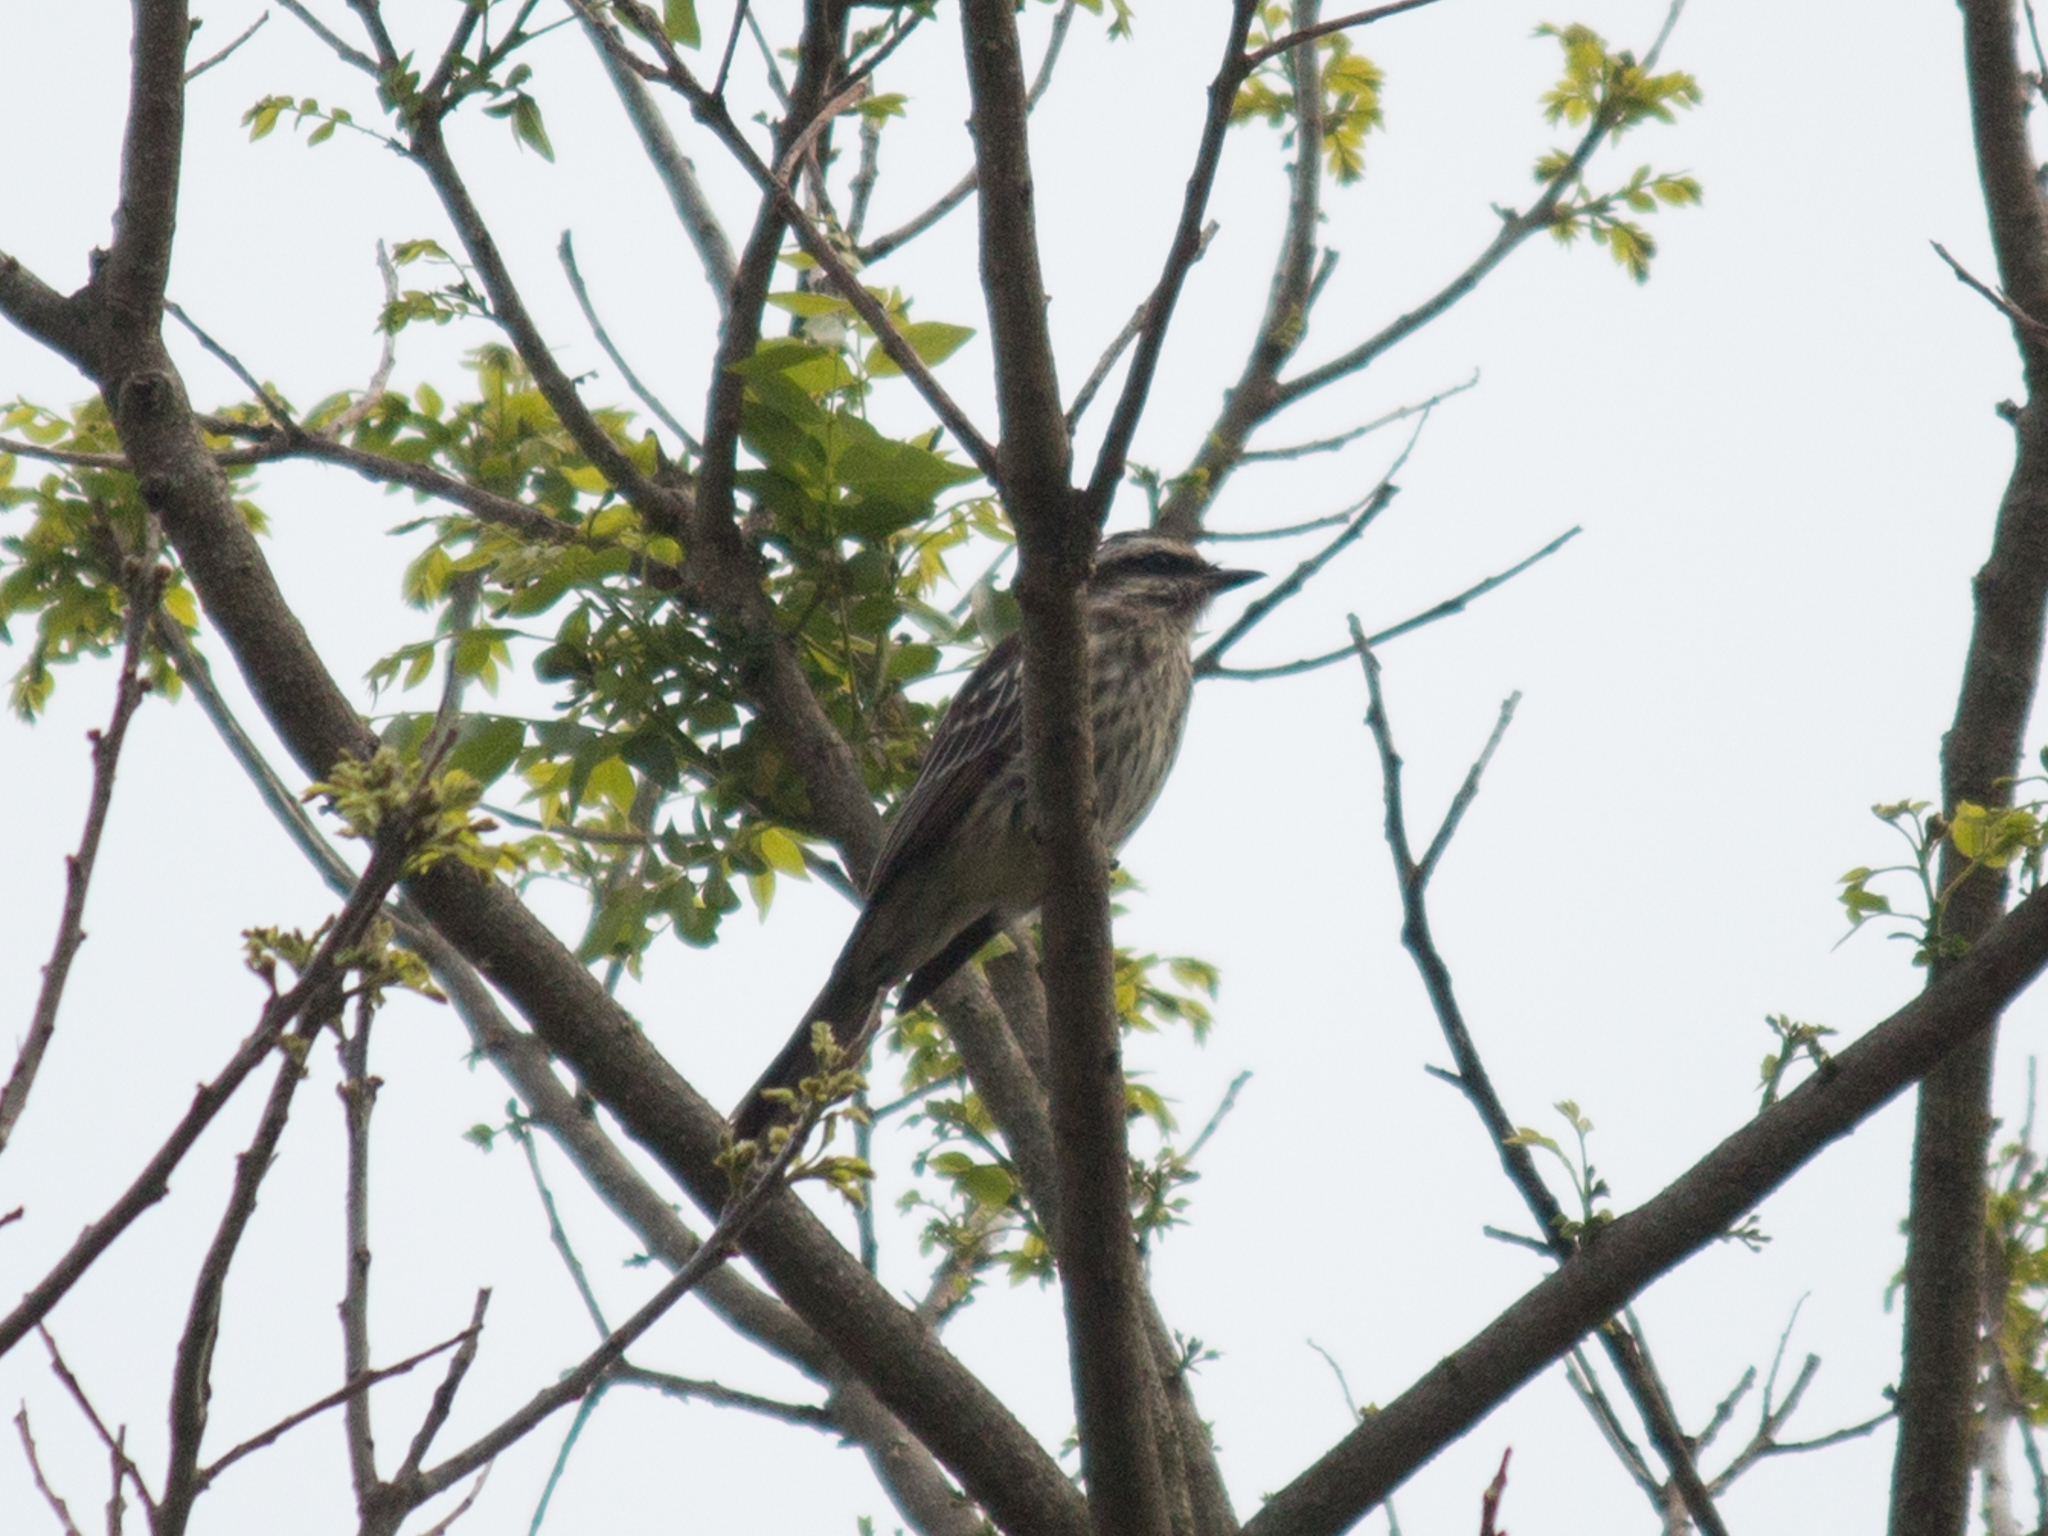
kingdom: Animalia
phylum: Chordata
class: Aves
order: Passeriformes
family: Tyrannidae
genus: Empidonomus
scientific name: Empidonomus varius
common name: Variegated flycatcher
